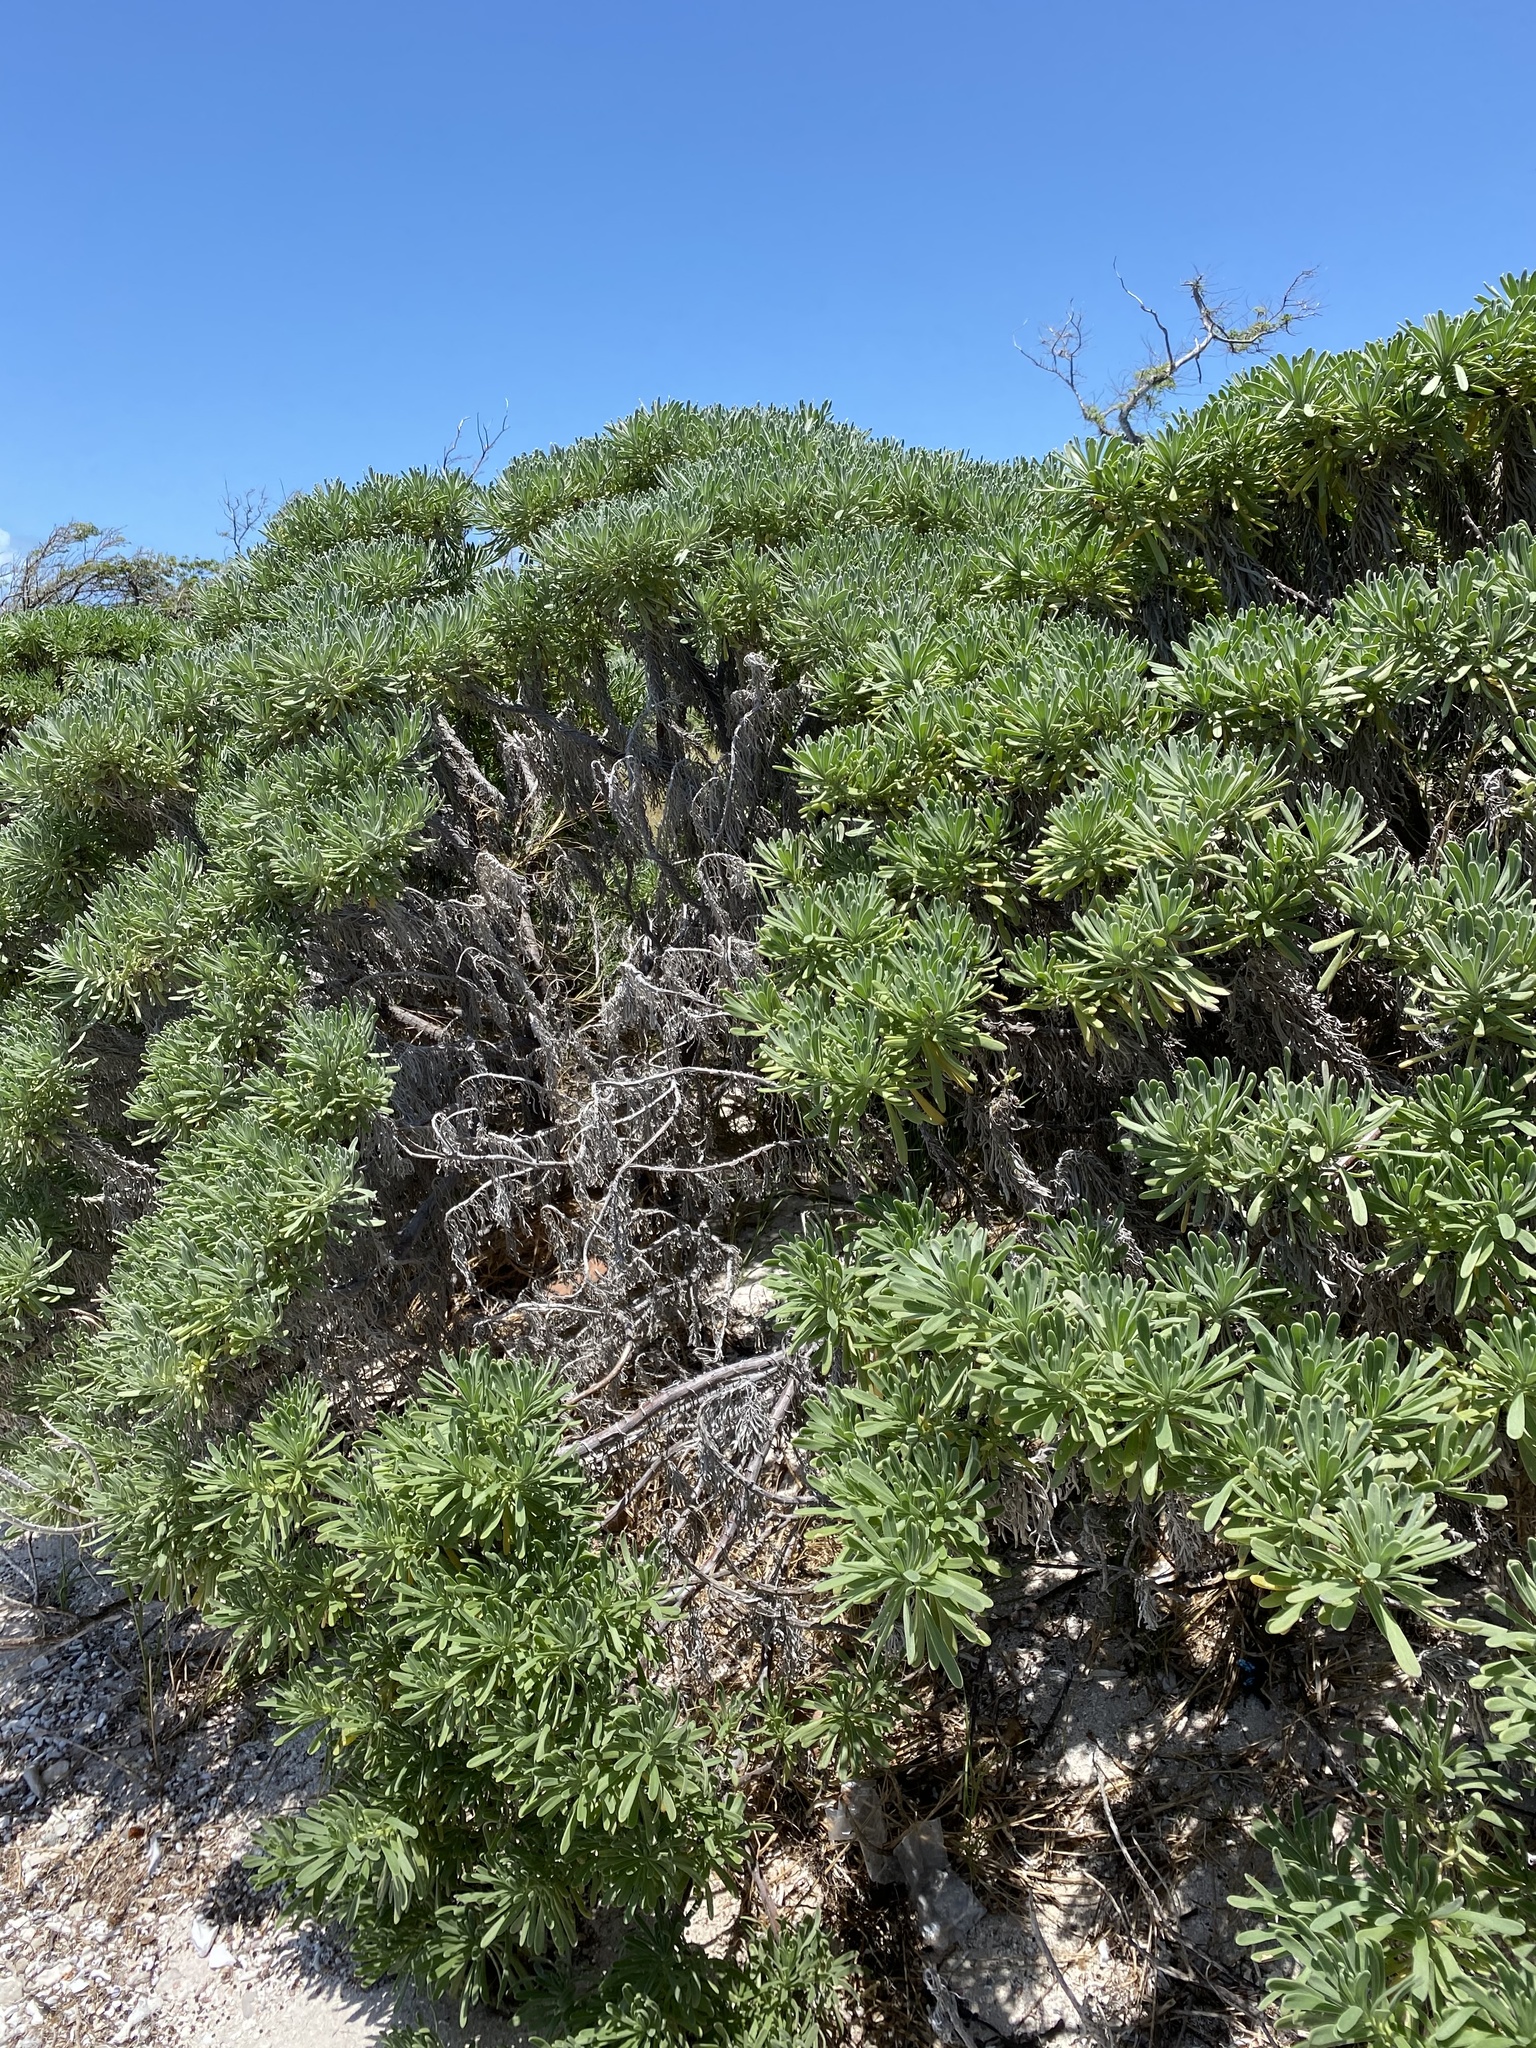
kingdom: Plantae
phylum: Tracheophyta
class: Magnoliopsida
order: Boraginales
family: Heliotropiaceae
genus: Tournefortia
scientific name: Tournefortia gnaphalodes
